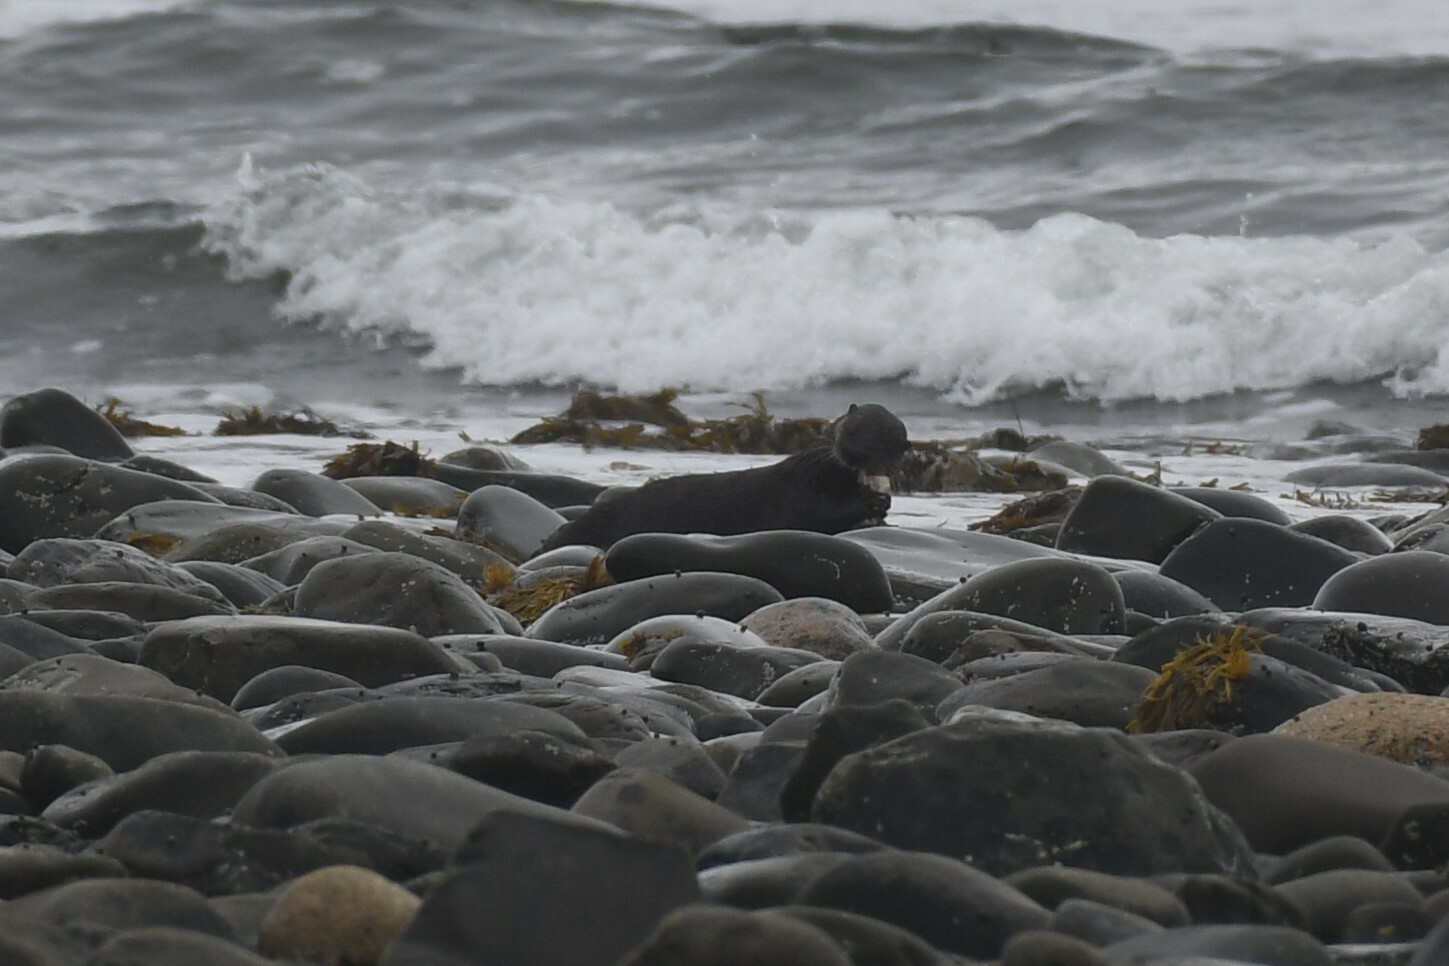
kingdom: Animalia
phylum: Chordata
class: Mammalia
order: Carnivora
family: Mustelidae
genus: Lontra
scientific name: Lontra canadensis
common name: North american river otter
